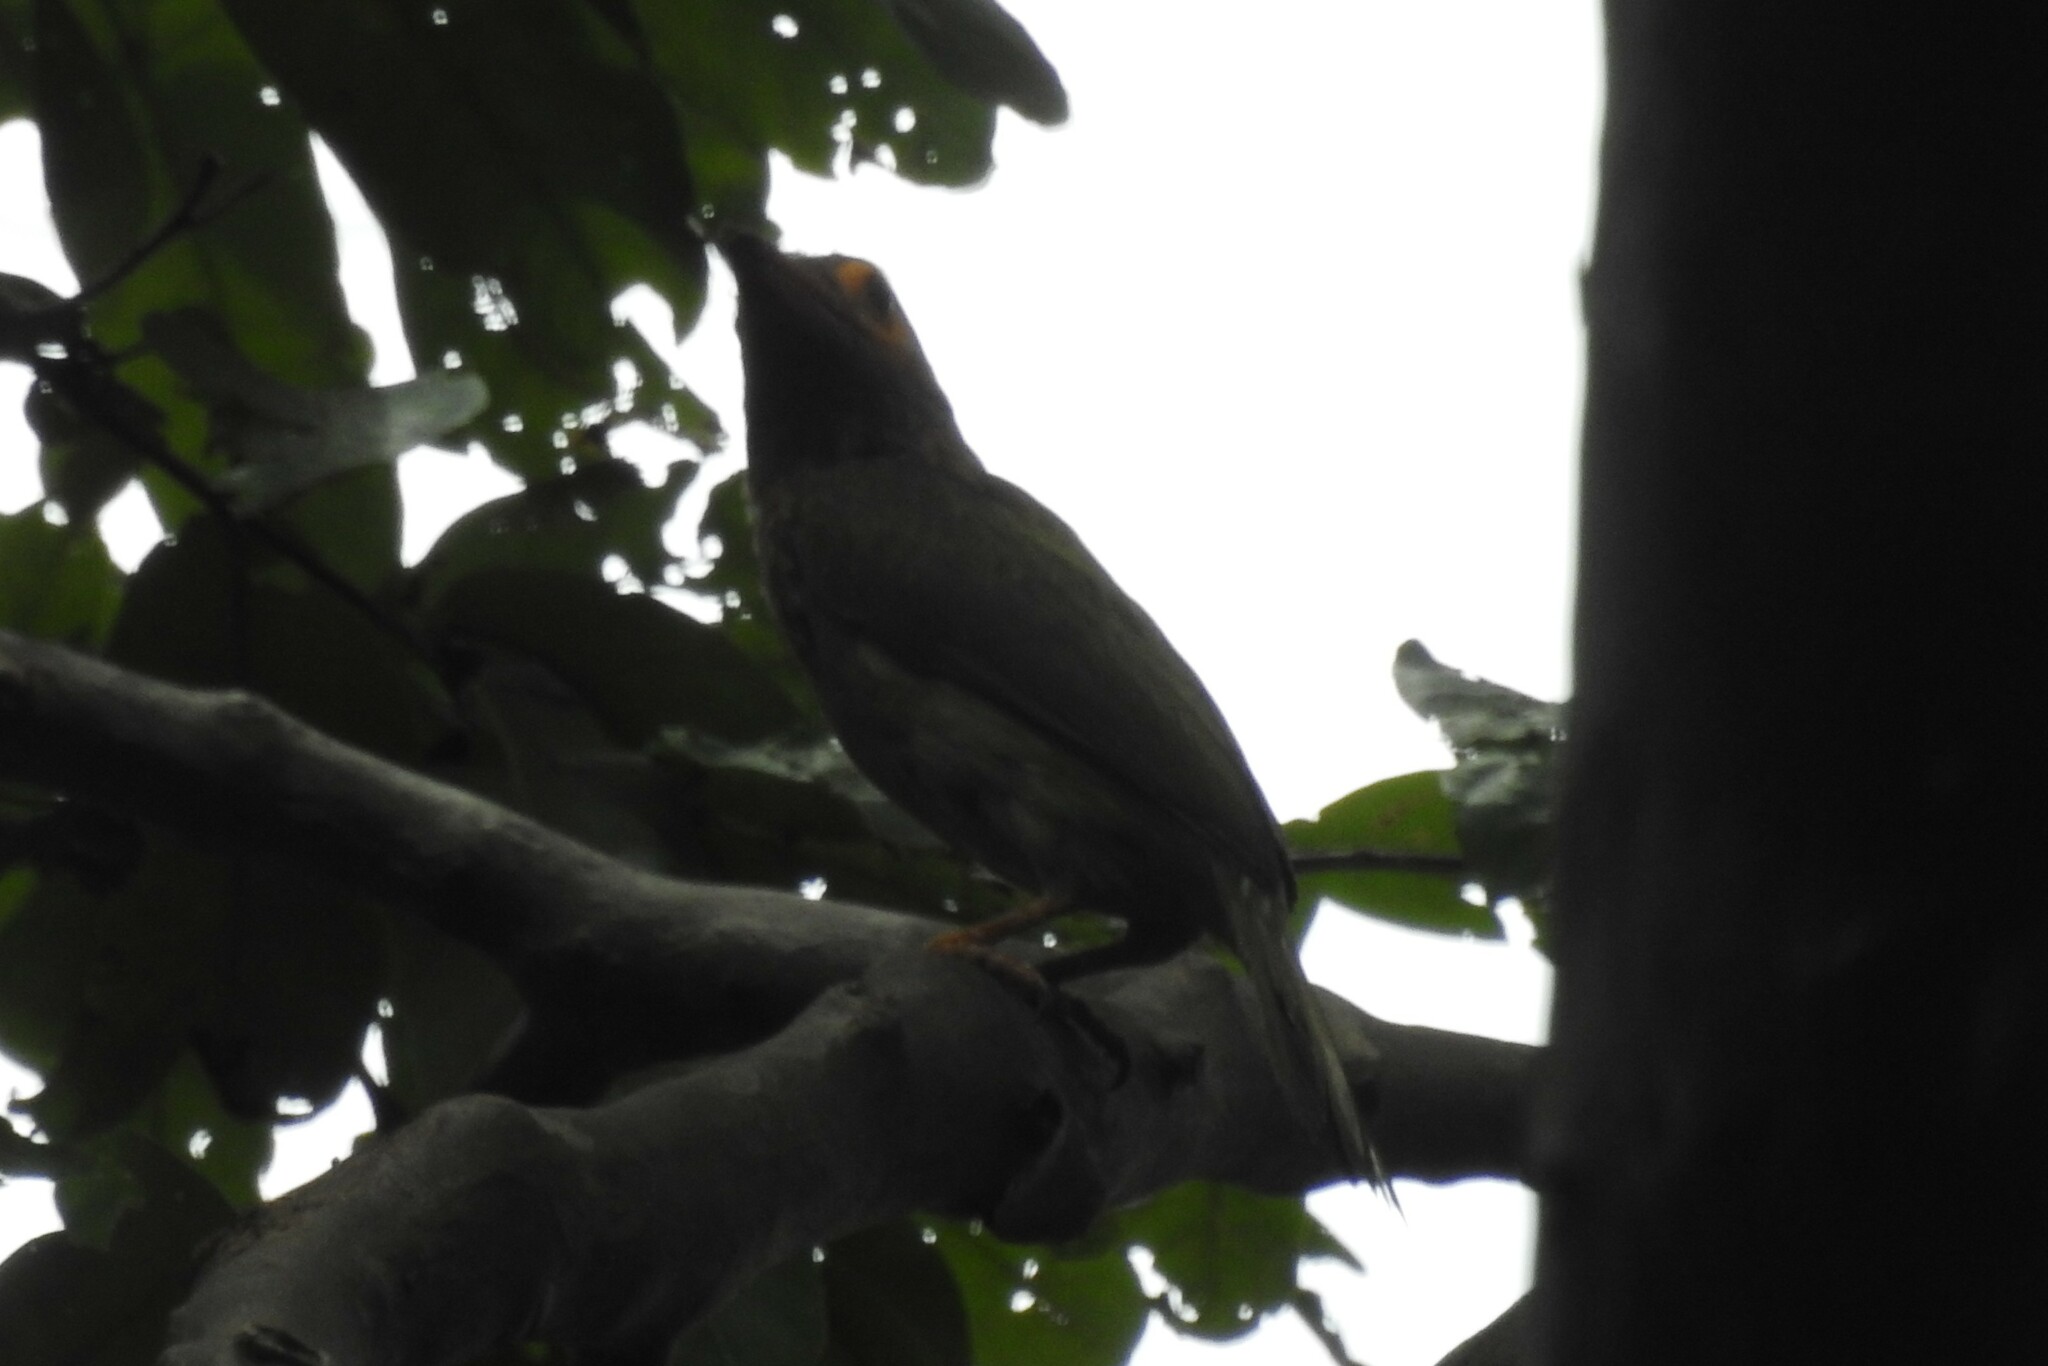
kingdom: Animalia
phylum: Chordata
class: Aves
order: Piciformes
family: Megalaimidae
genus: Psilopogon
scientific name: Psilopogon zeylanicus
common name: Brown-headed barbet
